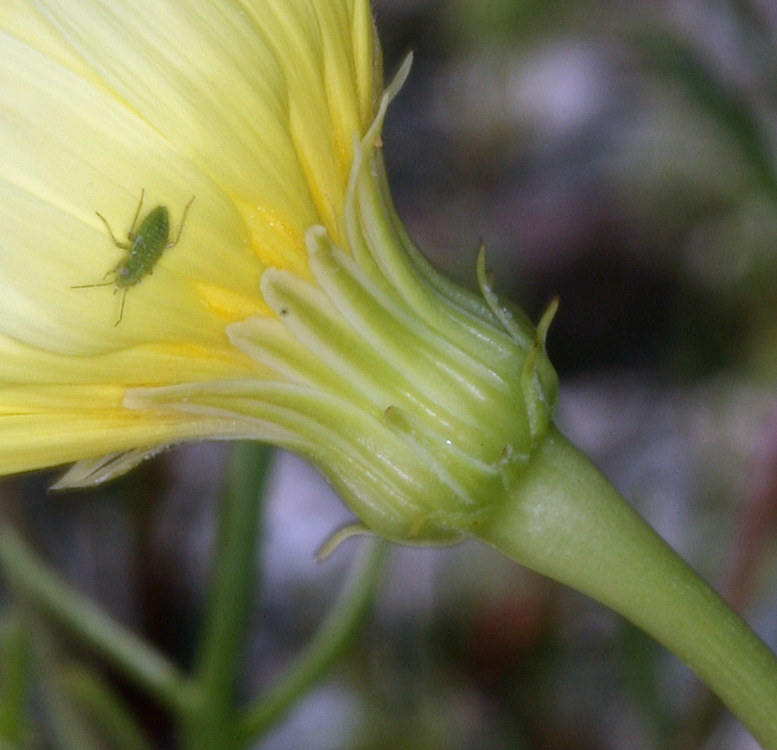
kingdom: Plantae
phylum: Tracheophyta
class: Magnoliopsida
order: Asterales
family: Asteraceae
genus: Malacothrix
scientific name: Malacothrix glabrata
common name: Smooth desert-dandelion
